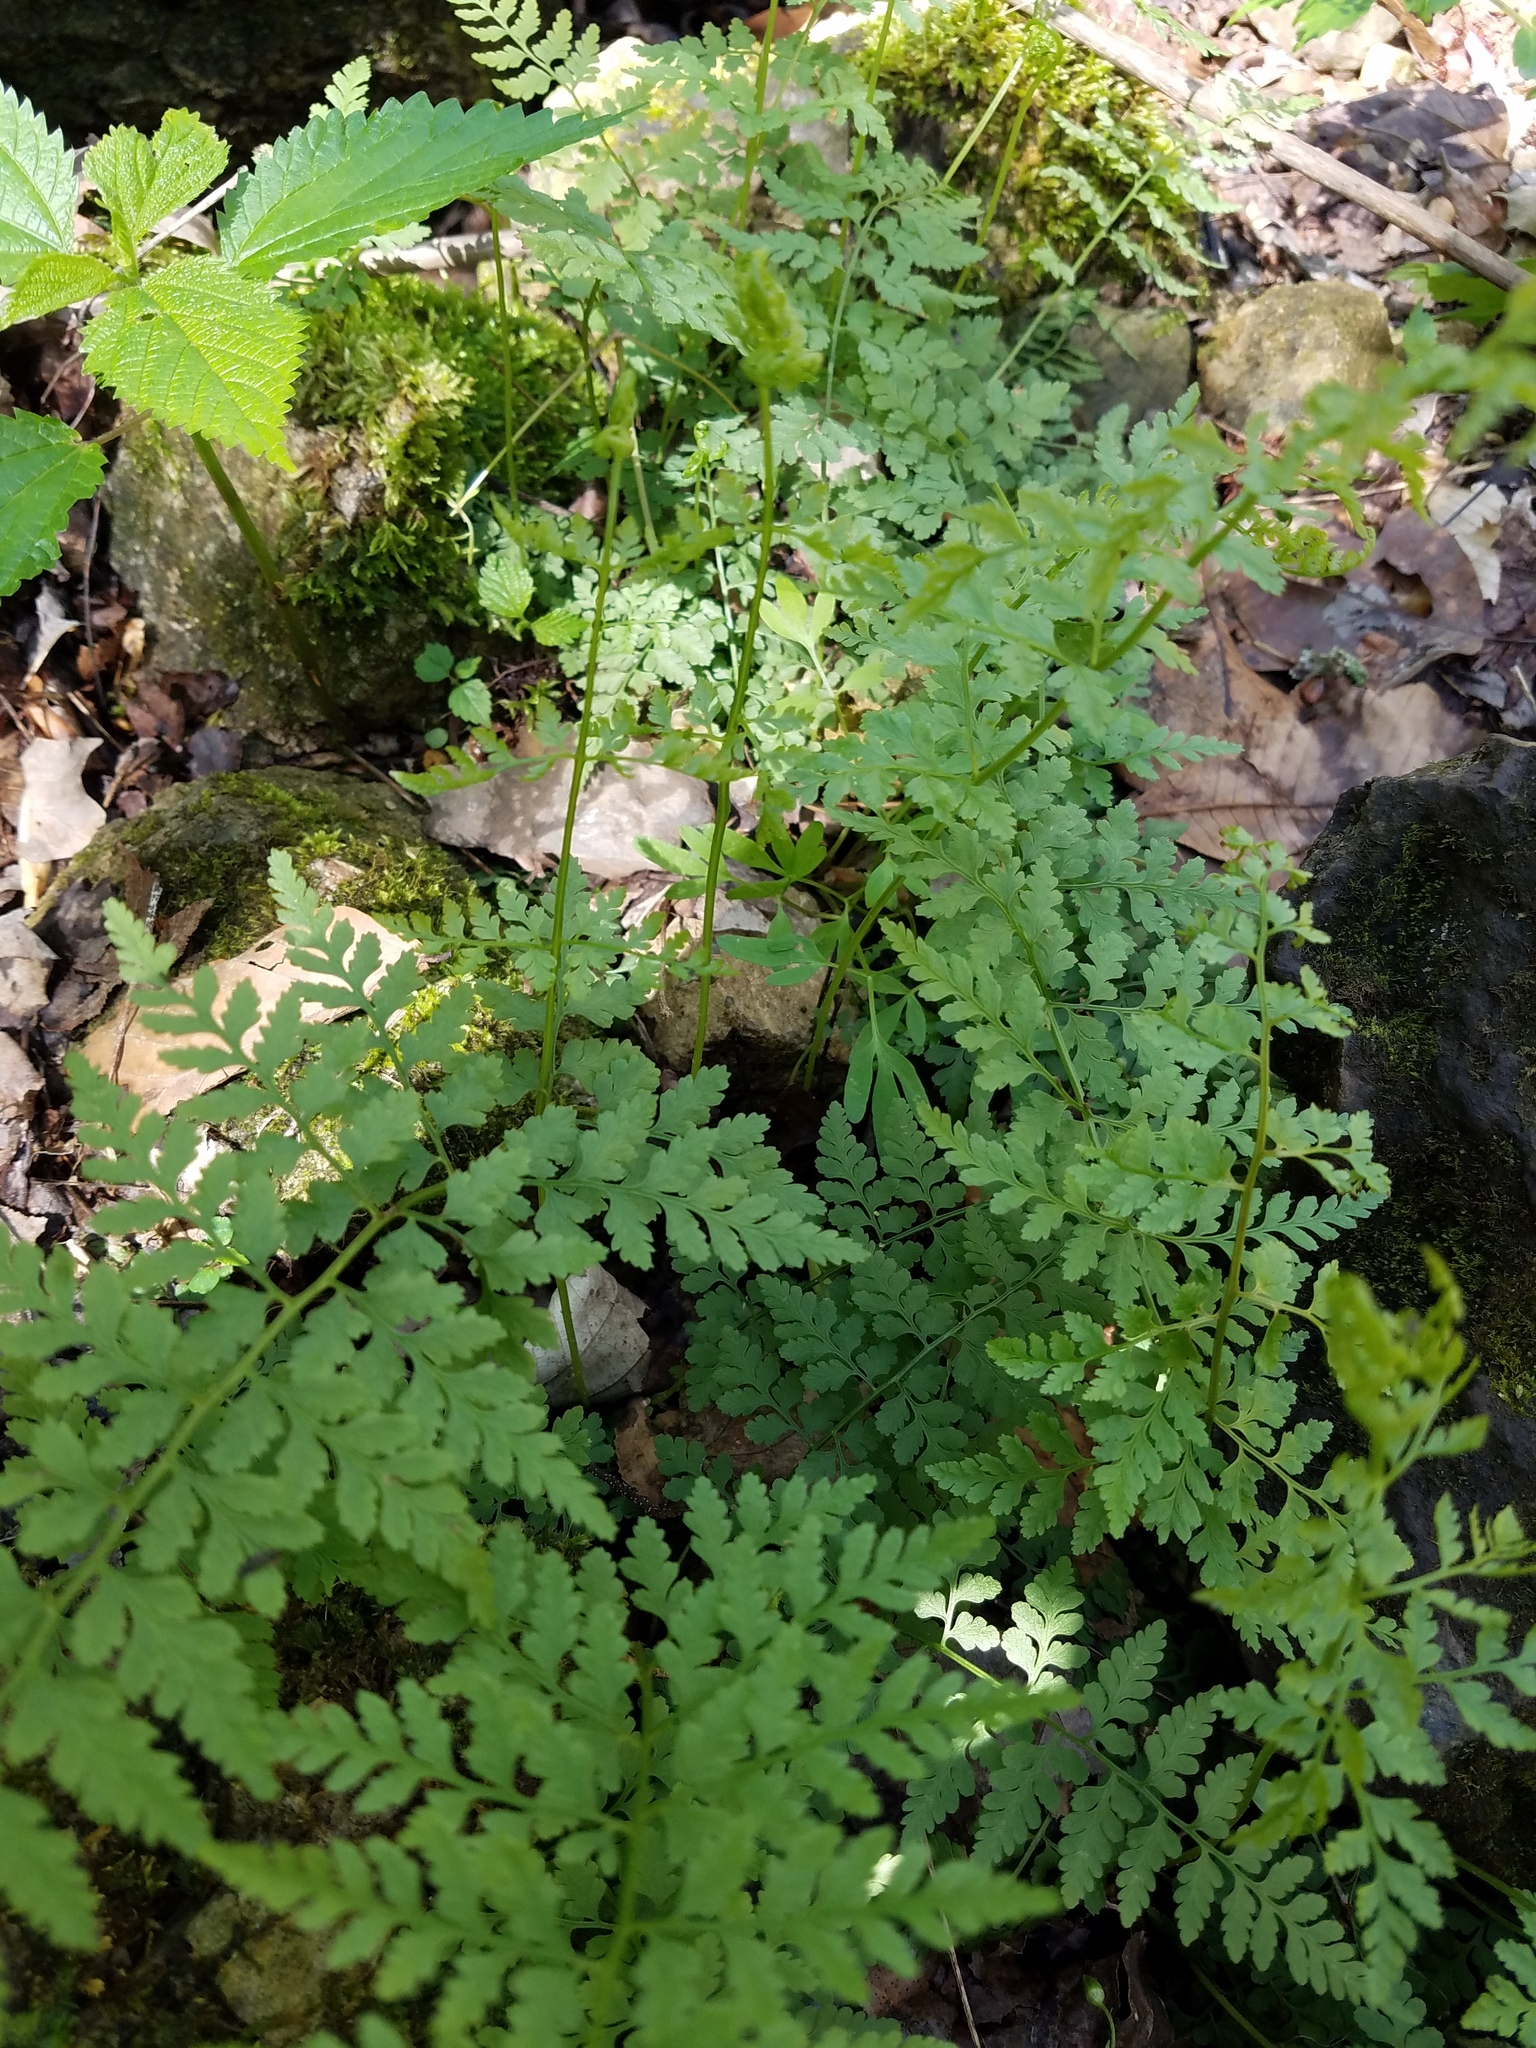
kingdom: Plantae
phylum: Tracheophyta
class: Polypodiopsida
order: Polypodiales
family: Cystopteridaceae
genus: Cystopteris
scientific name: Cystopteris protrusa
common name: Lowland brittle fern
